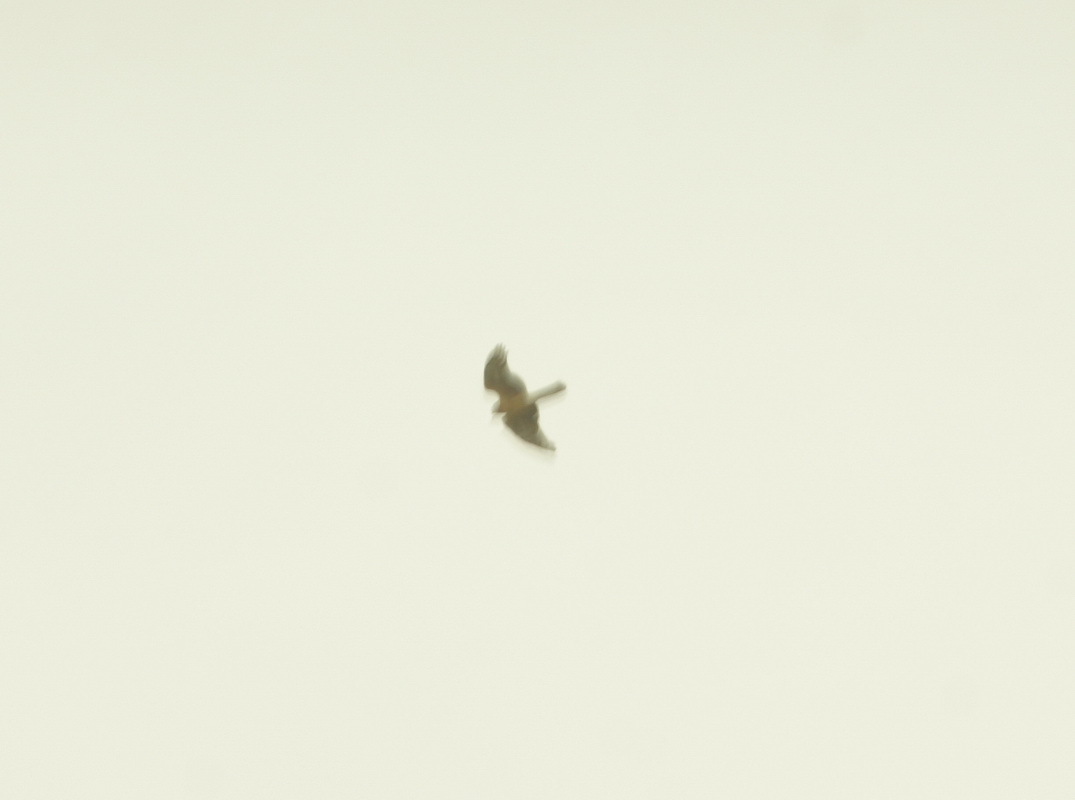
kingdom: Animalia
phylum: Chordata
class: Aves
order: Accipitriformes
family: Accipitridae
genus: Circus
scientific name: Circus cyaneus
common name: Hen harrier
